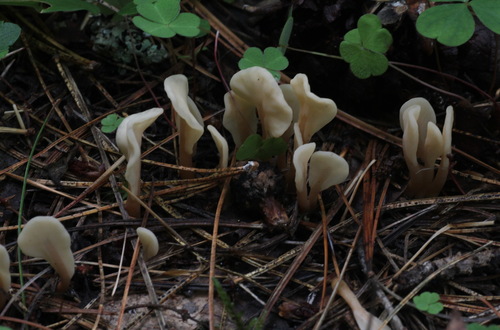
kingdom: Fungi
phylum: Ascomycota
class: Leotiomycetes
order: Rhytismatales
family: Cudoniaceae
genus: Spathularia
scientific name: Spathularia rufa
